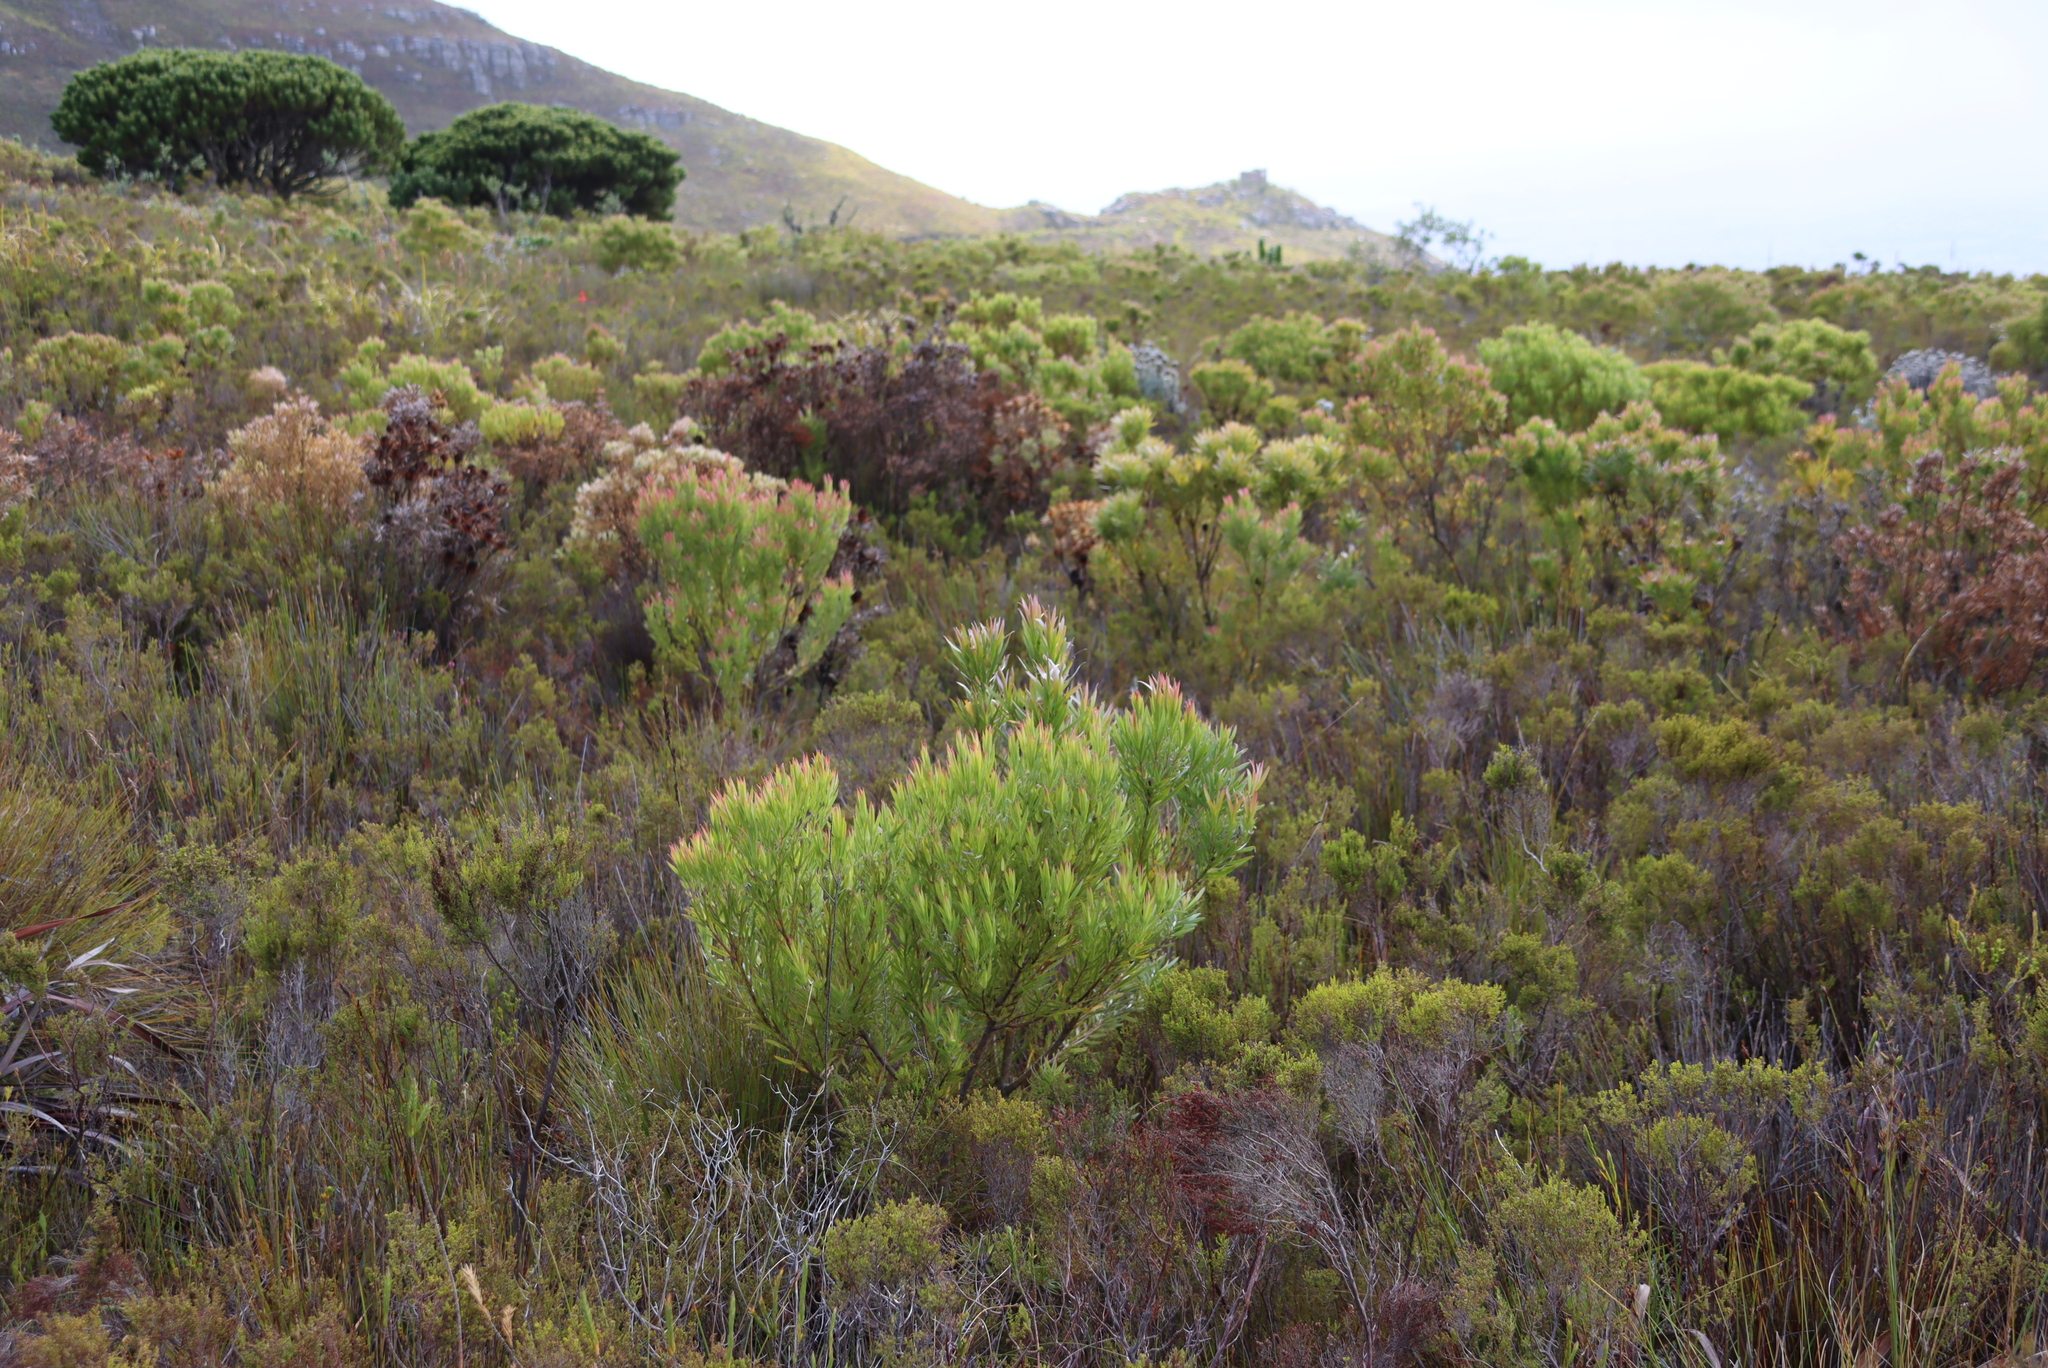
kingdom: Plantae
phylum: Tracheophyta
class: Magnoliopsida
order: Proteales
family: Proteaceae
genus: Leucadendron
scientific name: Leucadendron xanthoconus
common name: Sickle-leaf conebush
